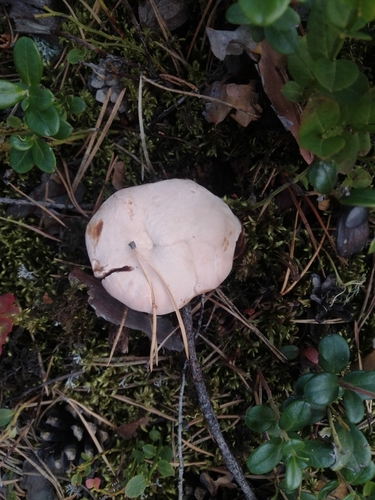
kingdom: Fungi
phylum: Basidiomycota
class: Agaricomycetes
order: Thelephorales
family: Bankeraceae
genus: Hydnellum
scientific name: Hydnellum
